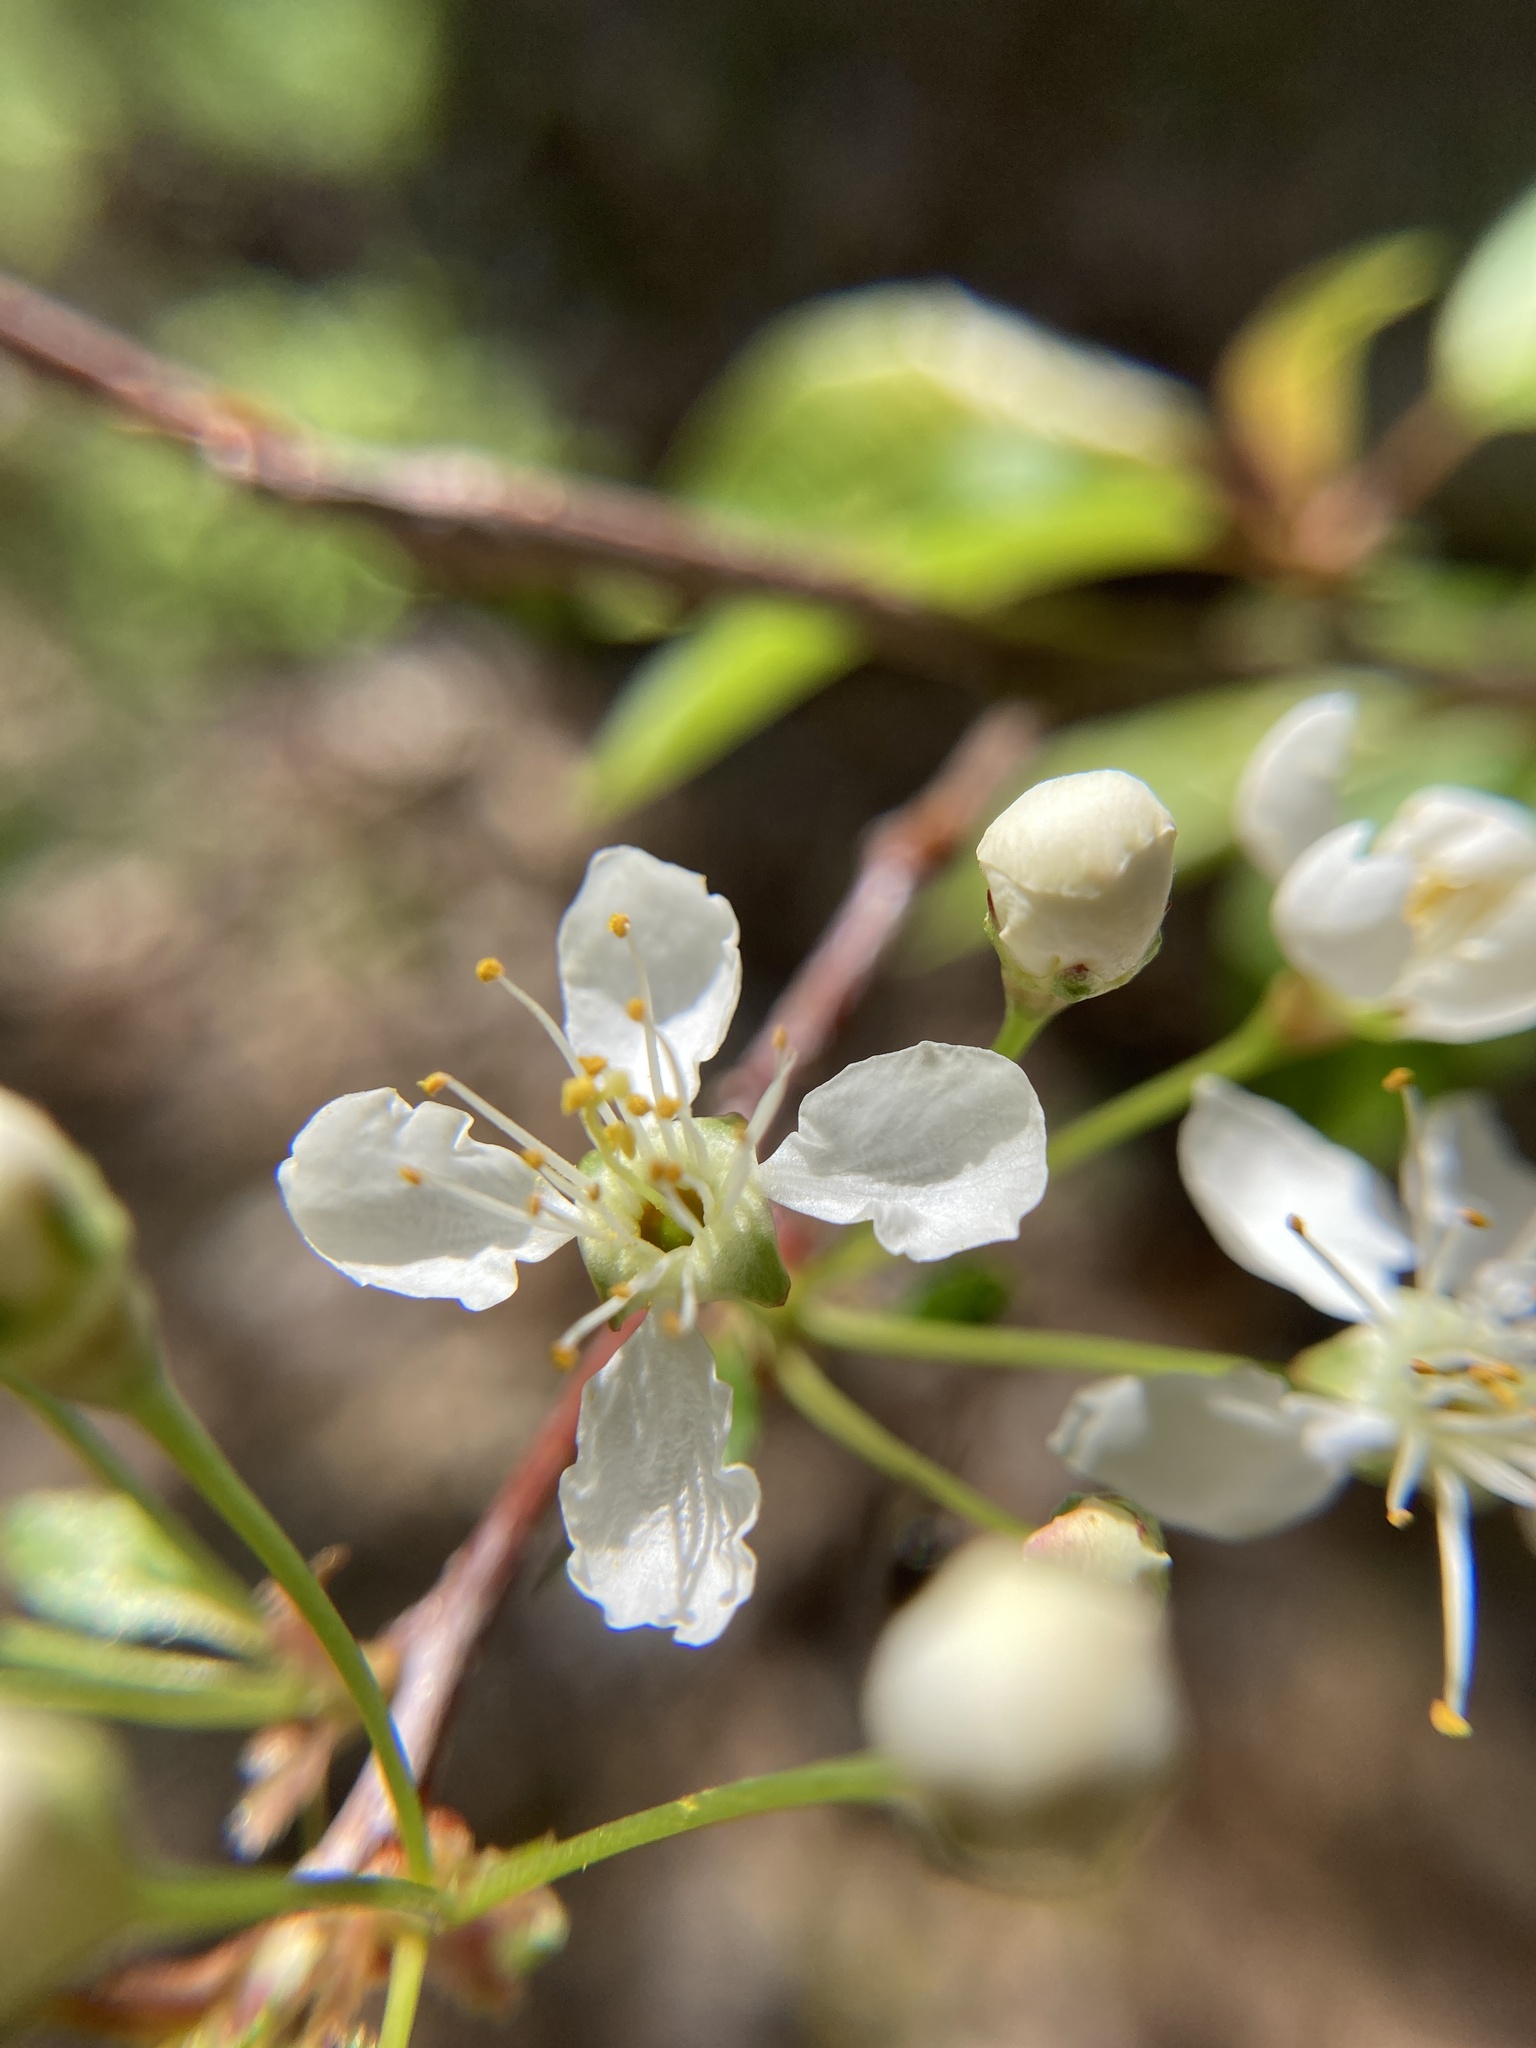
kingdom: Plantae
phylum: Tracheophyta
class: Magnoliopsida
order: Rosales
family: Rosaceae
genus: Prunus
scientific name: Prunus pensylvanica
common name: Pin cherry
